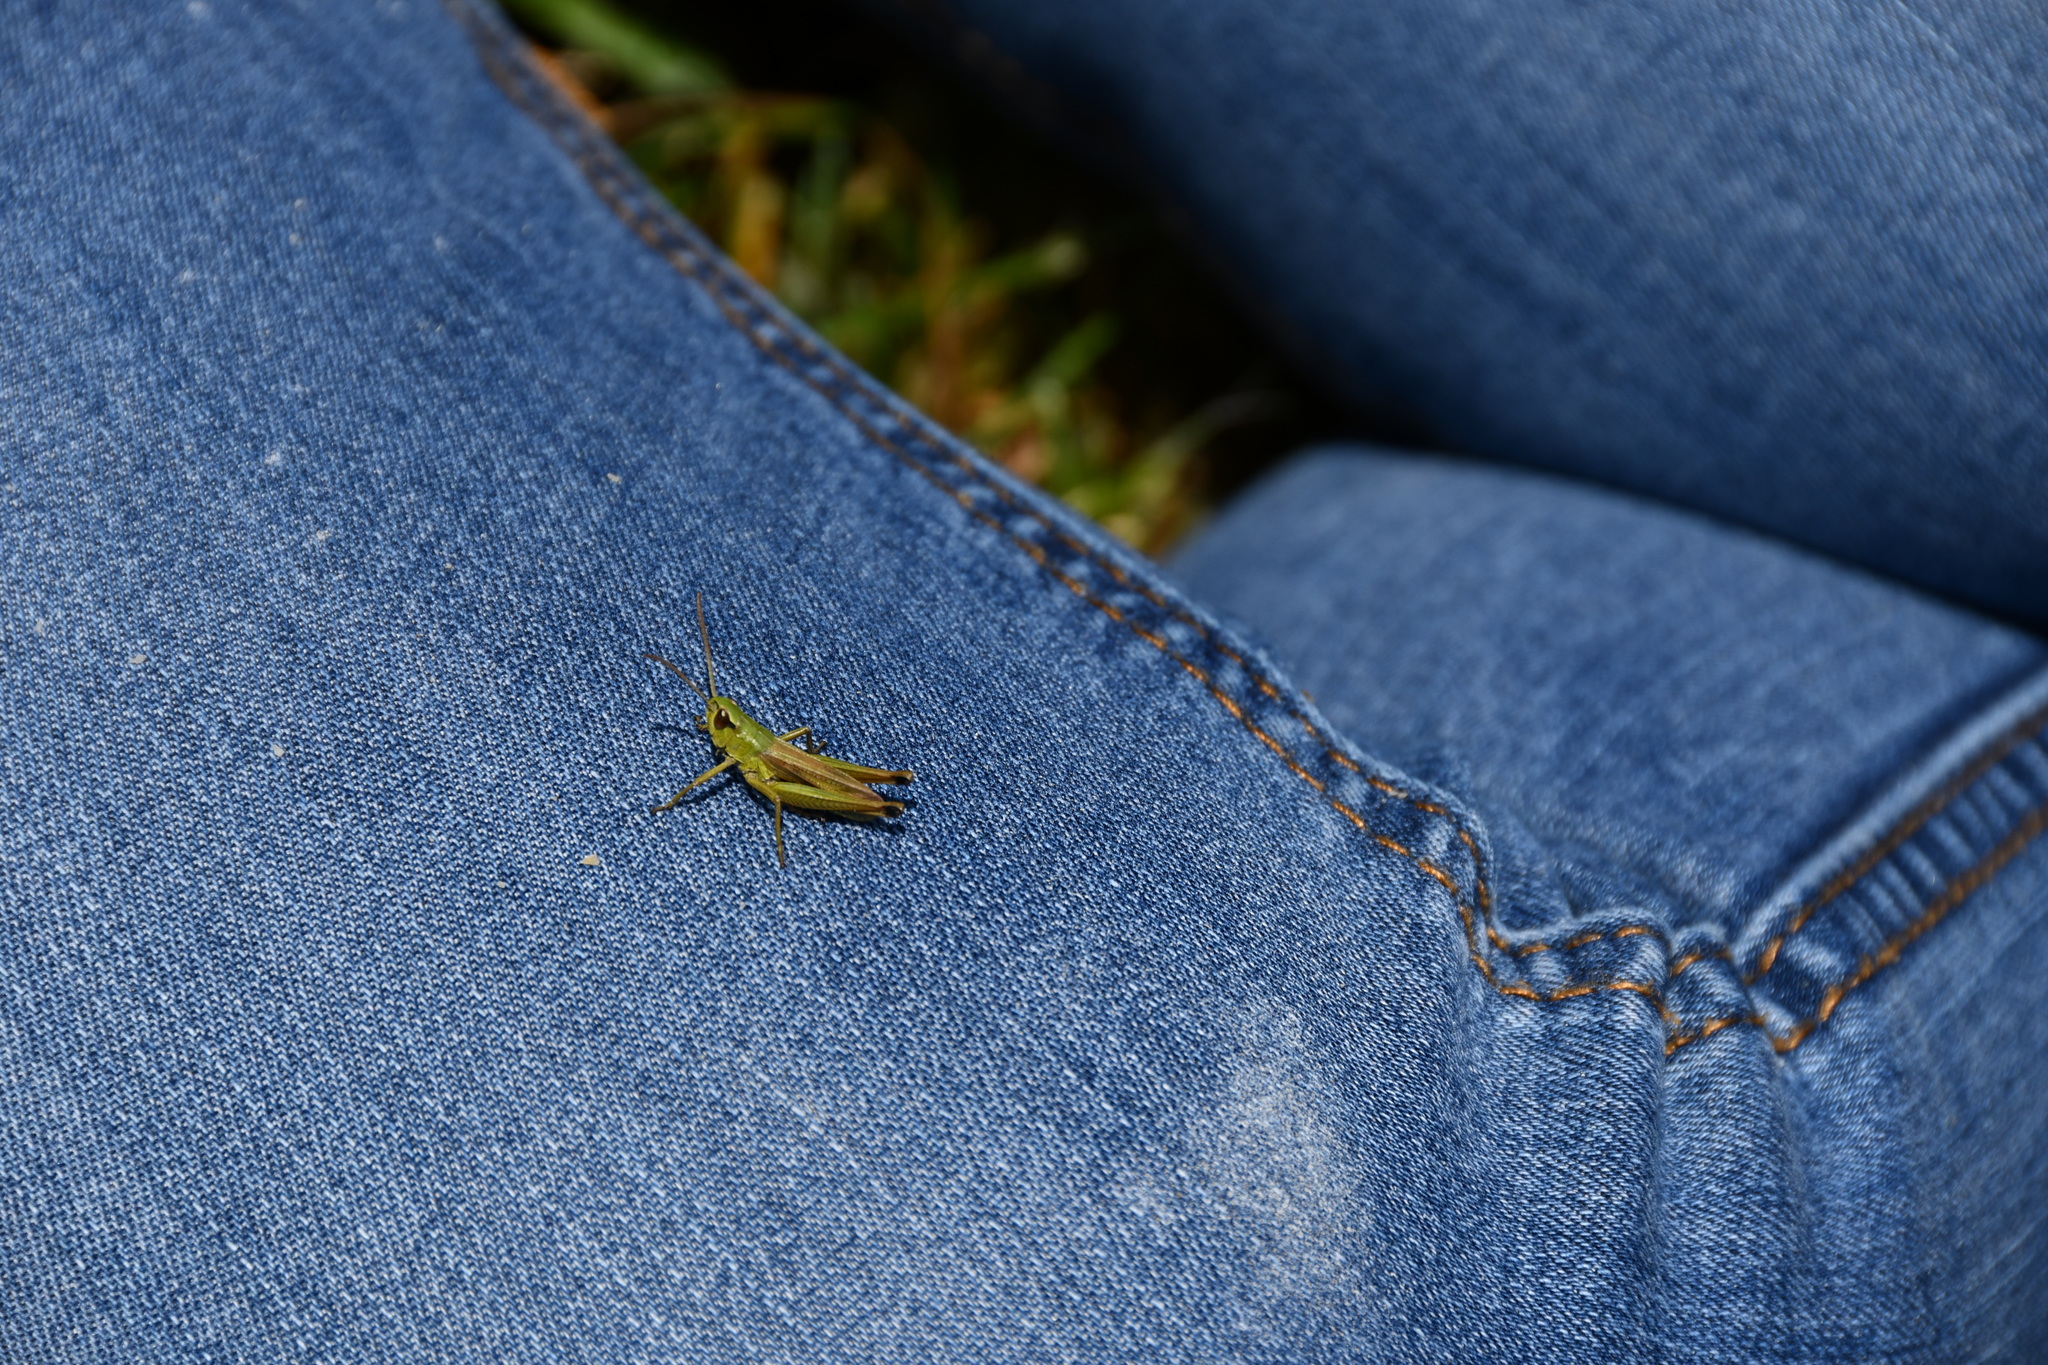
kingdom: Animalia
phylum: Arthropoda
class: Insecta
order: Orthoptera
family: Acrididae
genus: Pseudochorthippus
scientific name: Pseudochorthippus parallelus
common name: Meadow grasshopper
